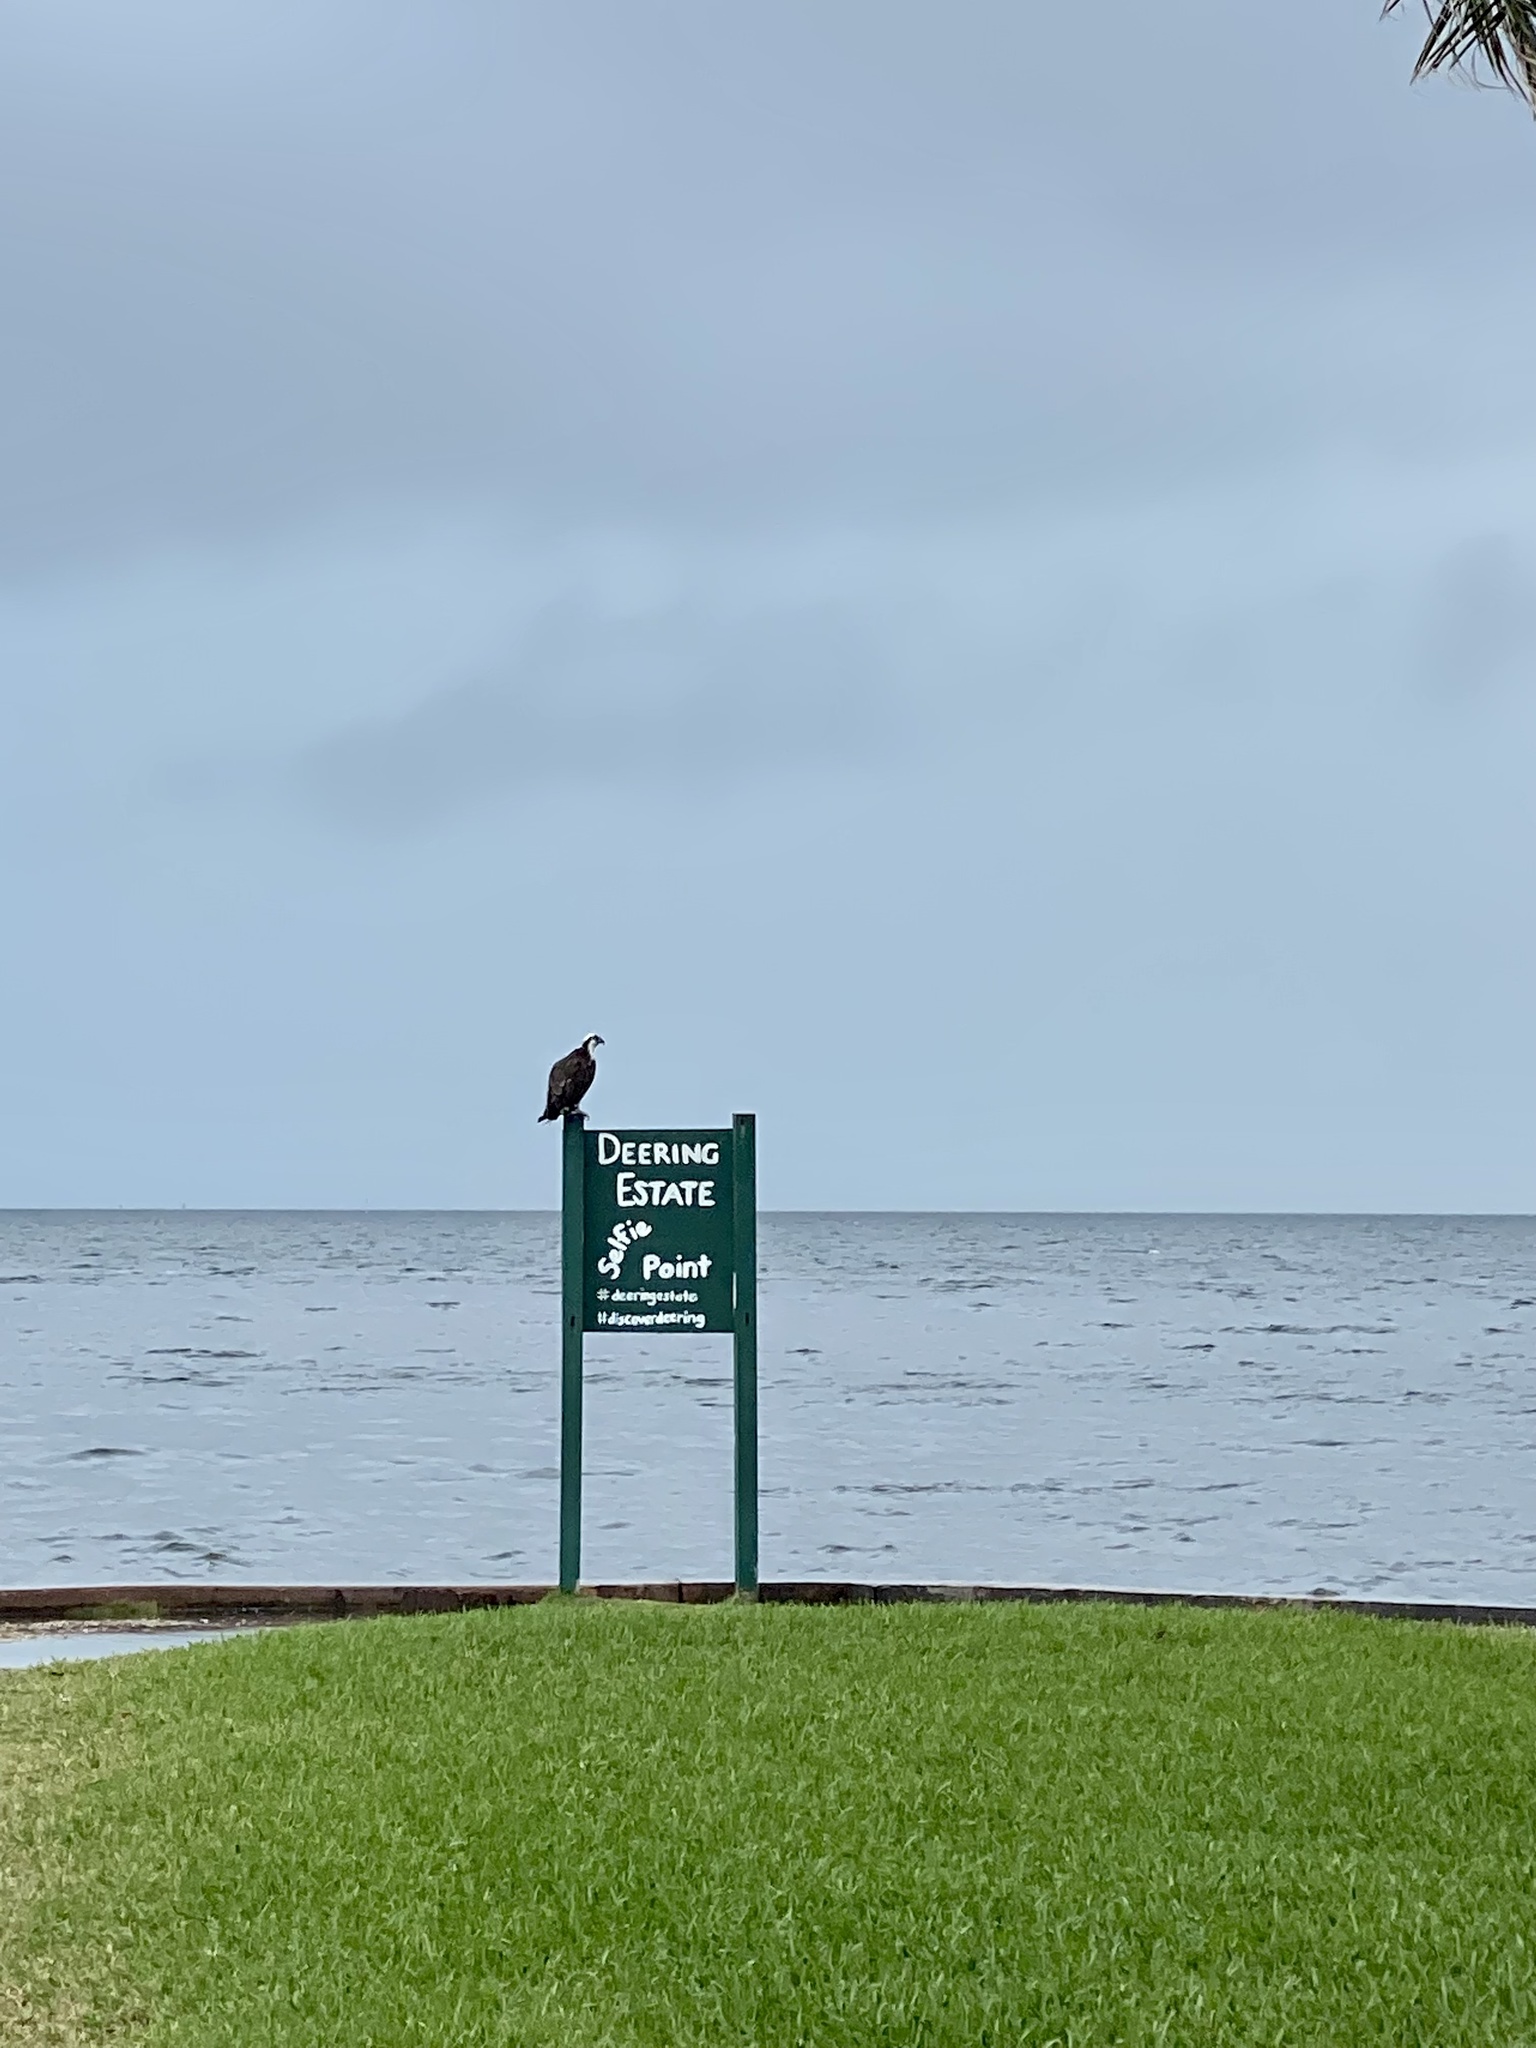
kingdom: Animalia
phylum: Chordata
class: Aves
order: Accipitriformes
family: Pandionidae
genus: Pandion
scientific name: Pandion haliaetus
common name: Osprey
